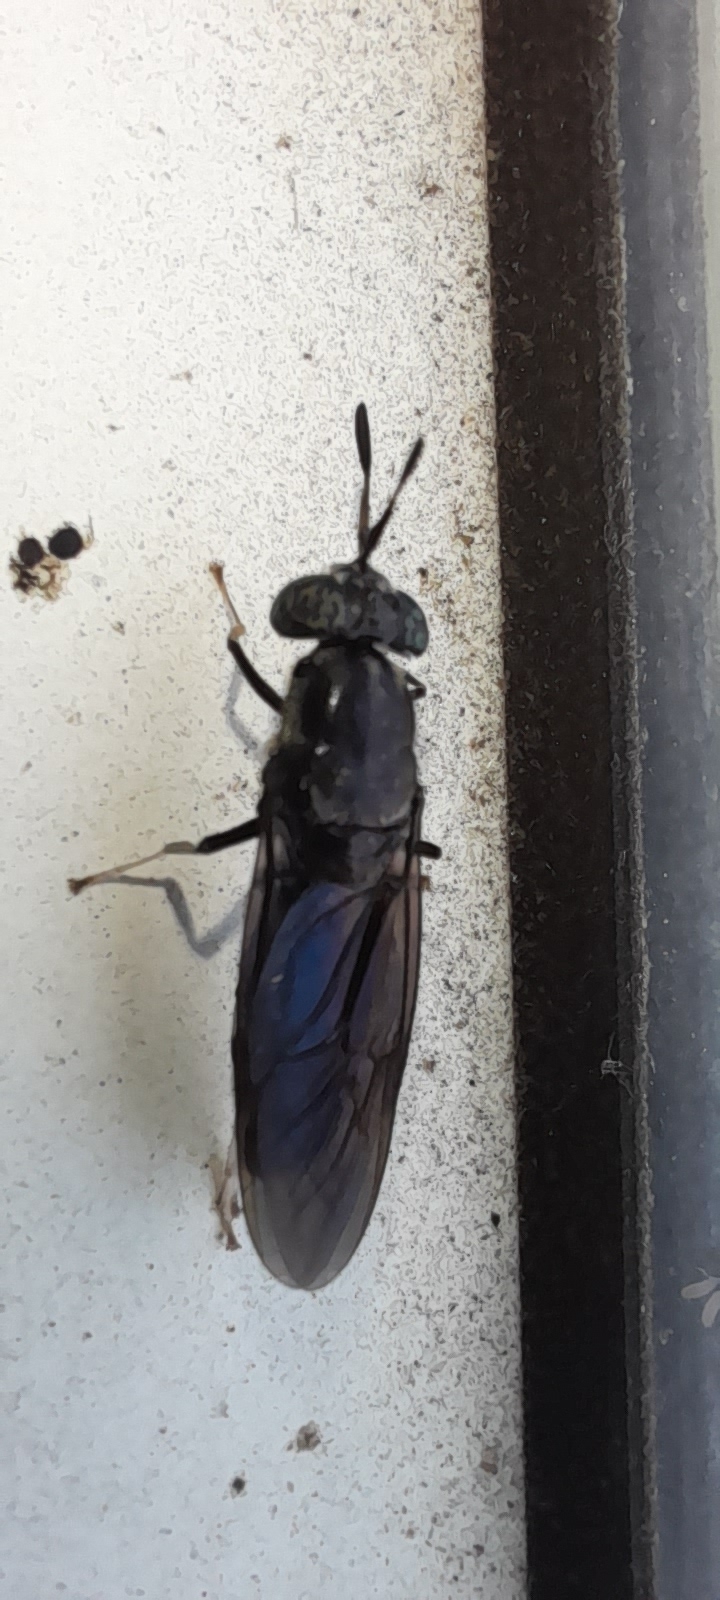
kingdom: Animalia
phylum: Arthropoda
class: Insecta
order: Diptera
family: Stratiomyidae
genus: Hermetia
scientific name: Hermetia illucens
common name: Black soldier fly
